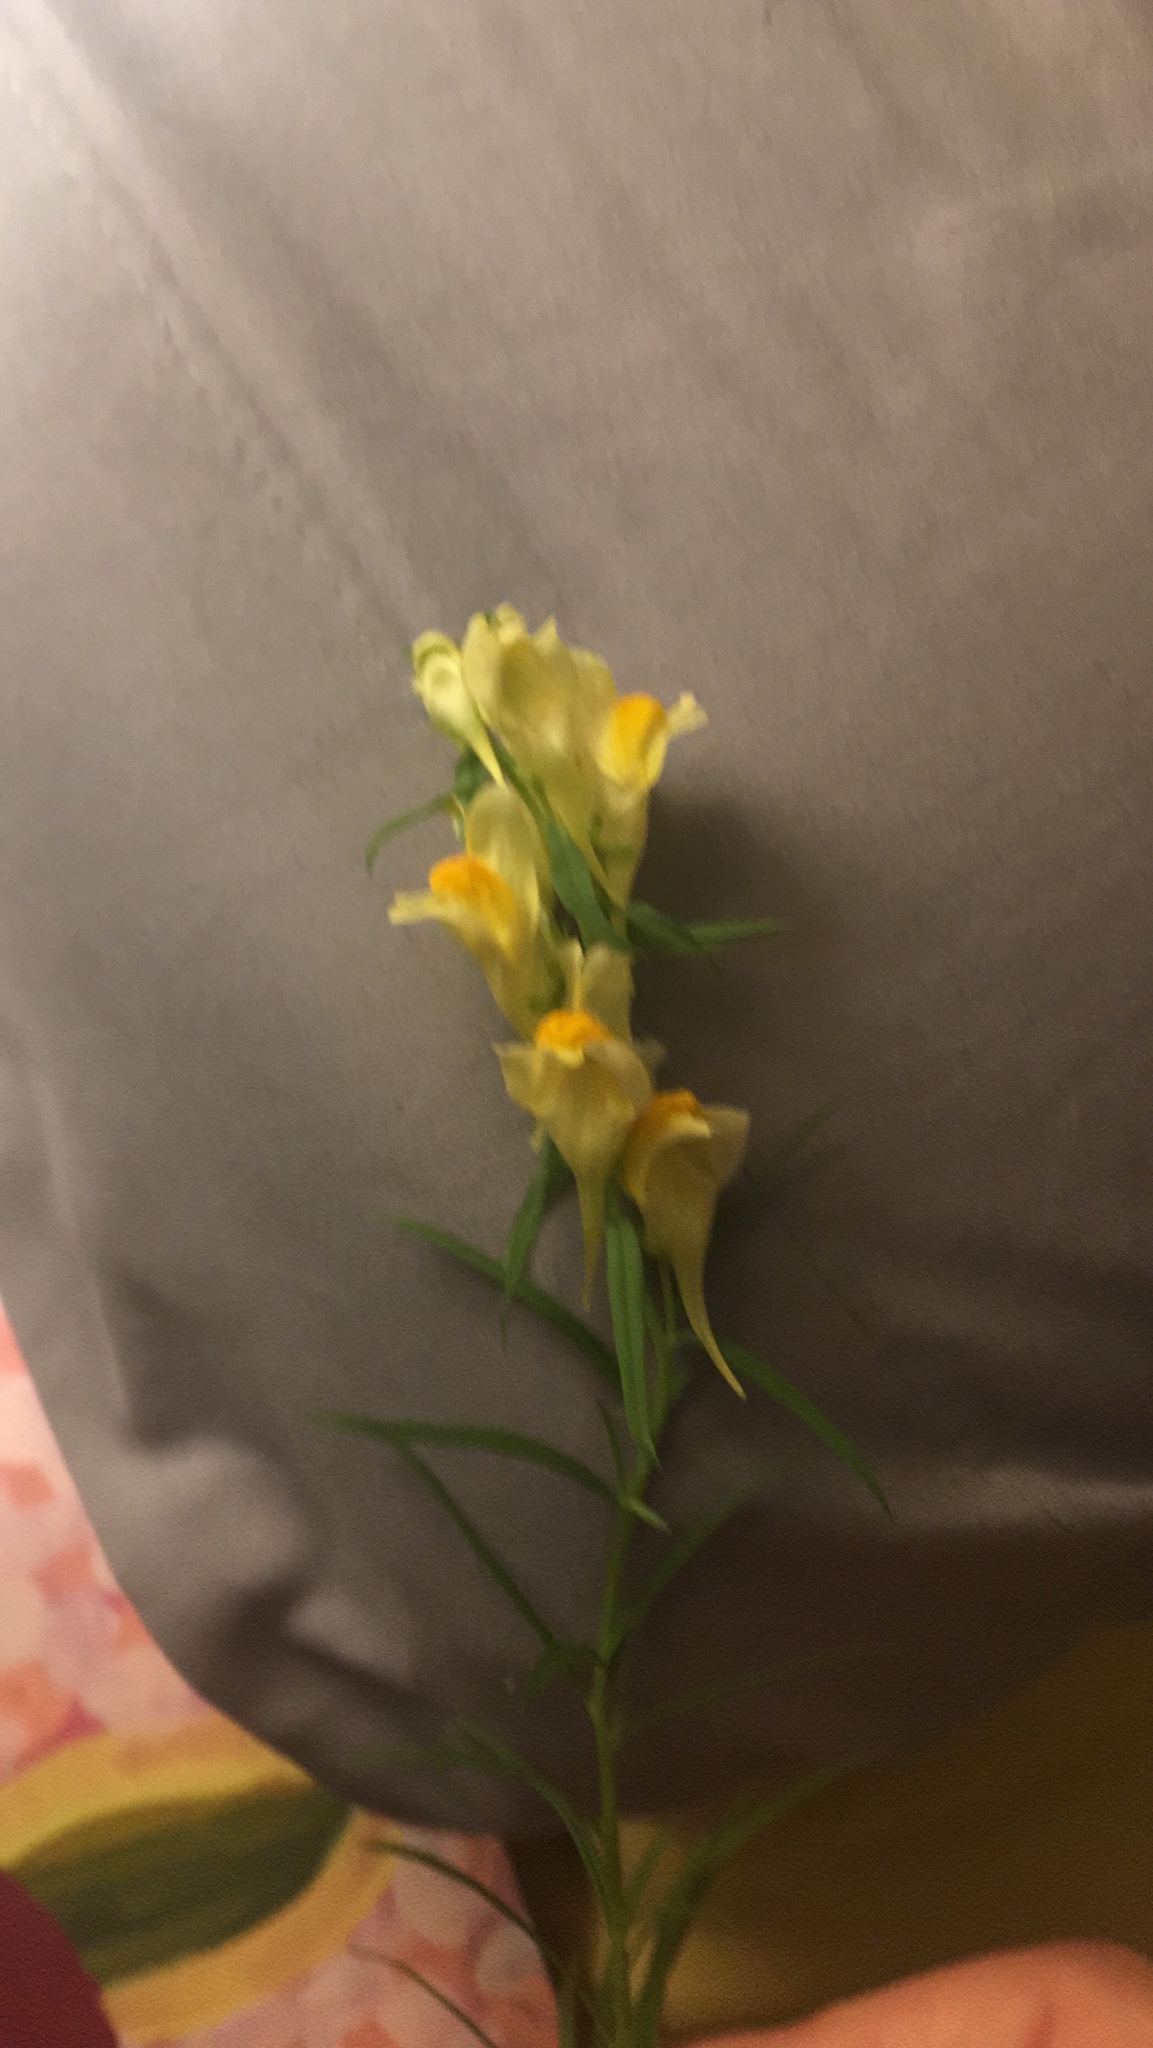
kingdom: Plantae
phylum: Tracheophyta
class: Magnoliopsida
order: Lamiales
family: Plantaginaceae
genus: Linaria
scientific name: Linaria vulgaris
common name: Butter and eggs
